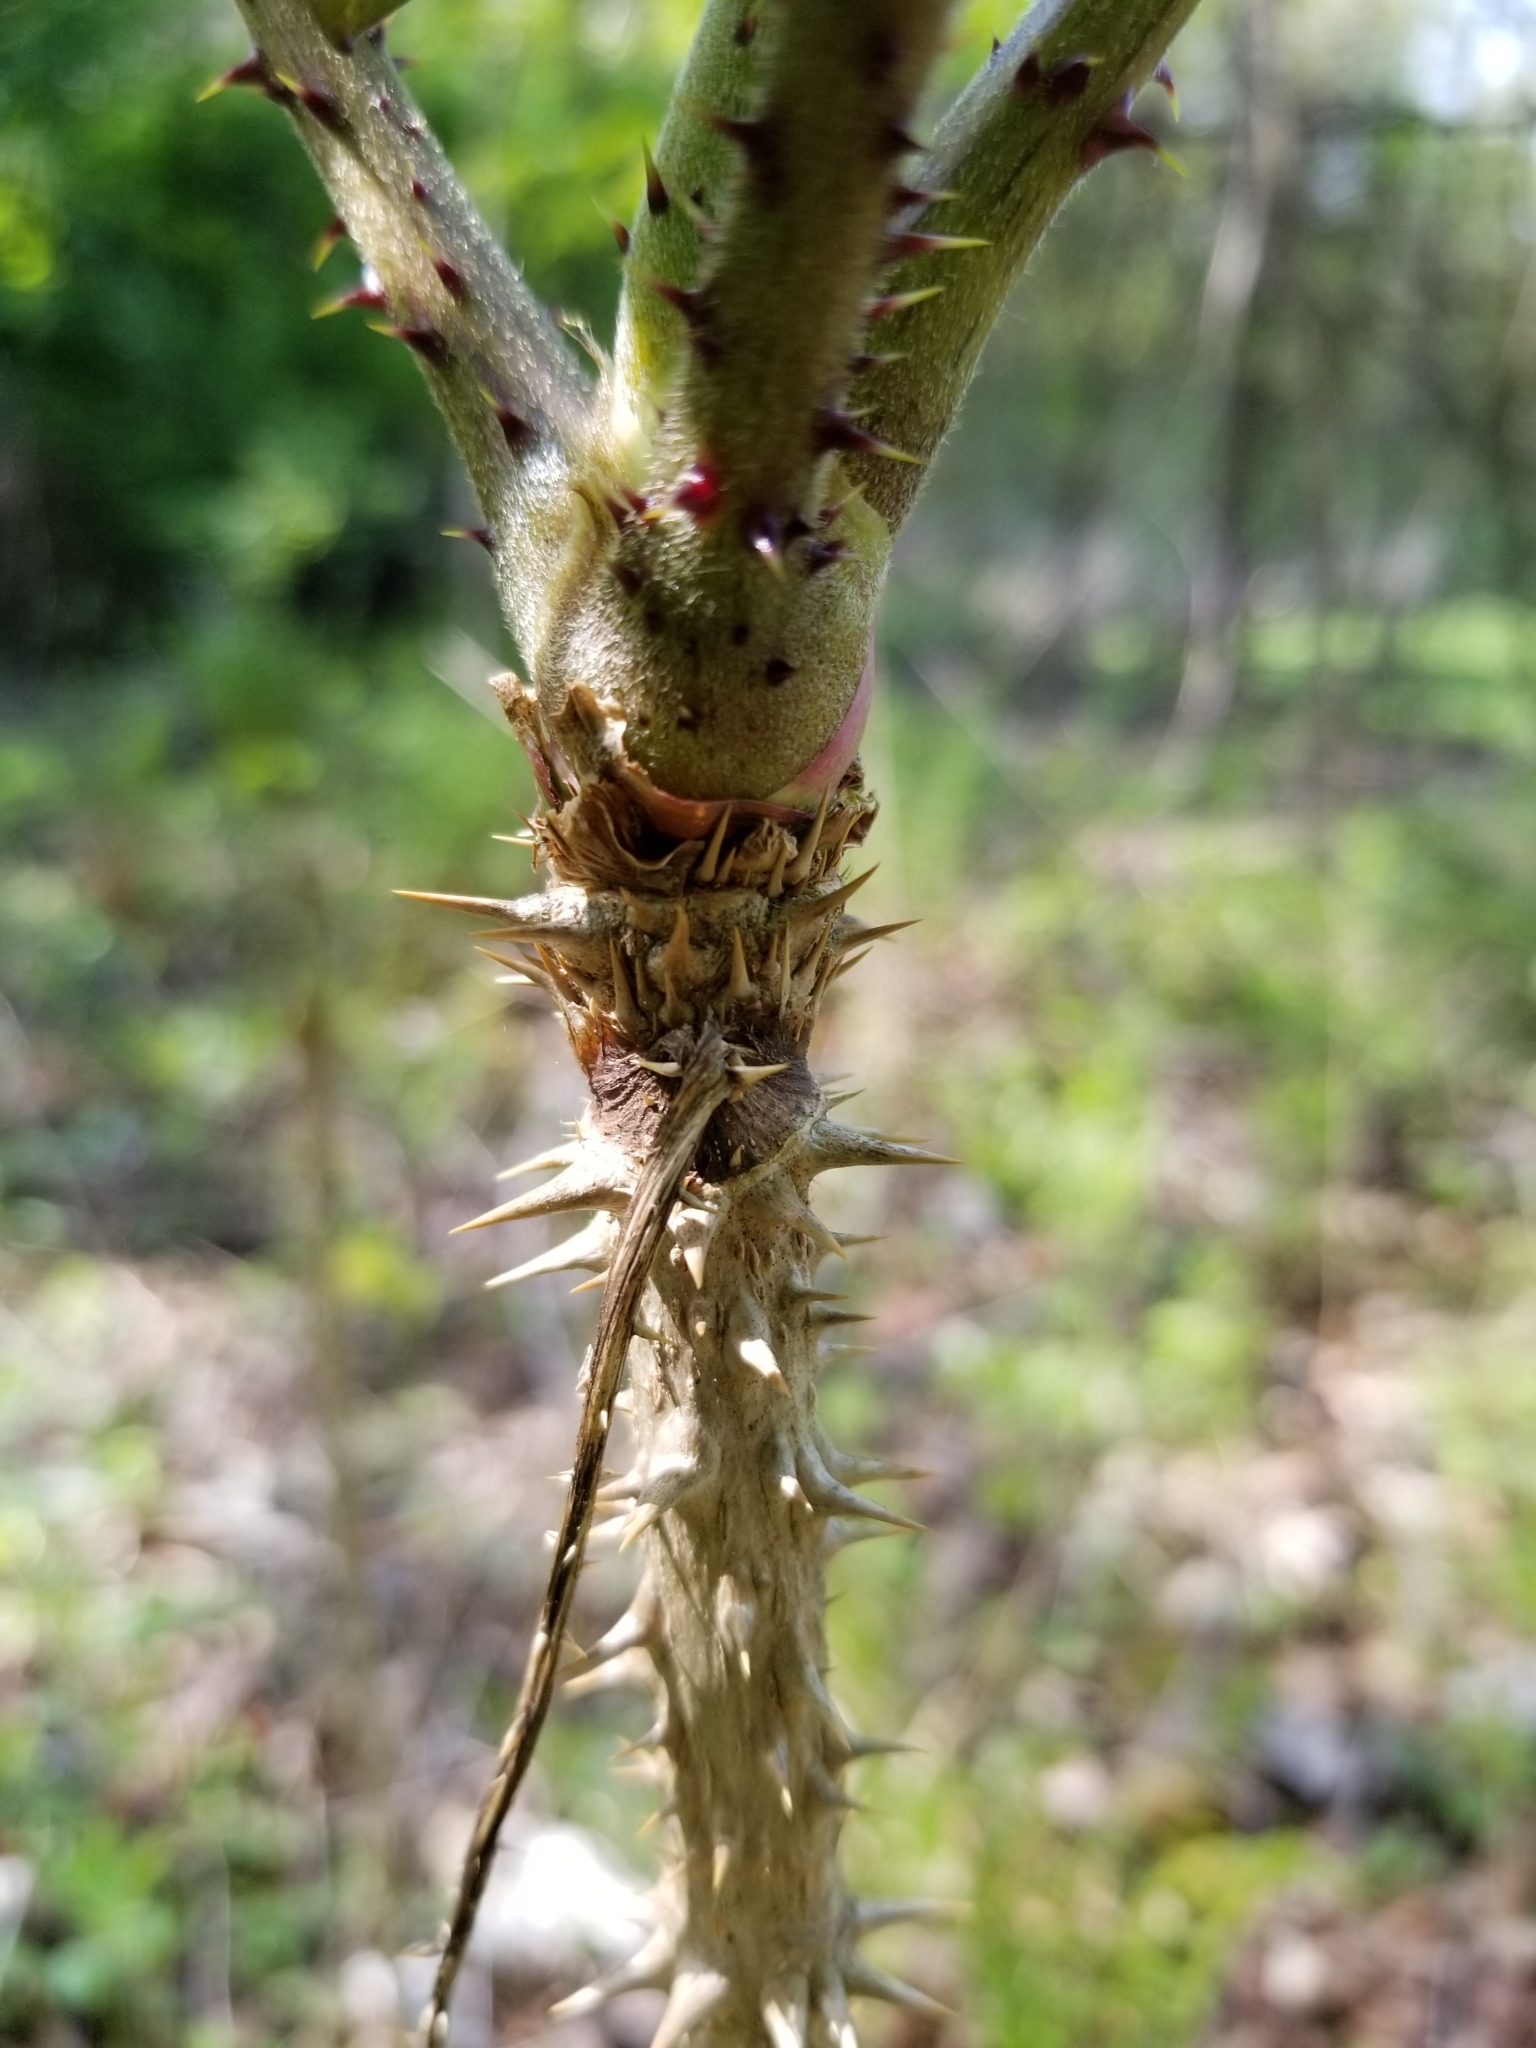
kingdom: Plantae
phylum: Tracheophyta
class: Magnoliopsida
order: Apiales
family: Araliaceae
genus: Aralia
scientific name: Aralia elata
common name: Japanese angelica-tree
